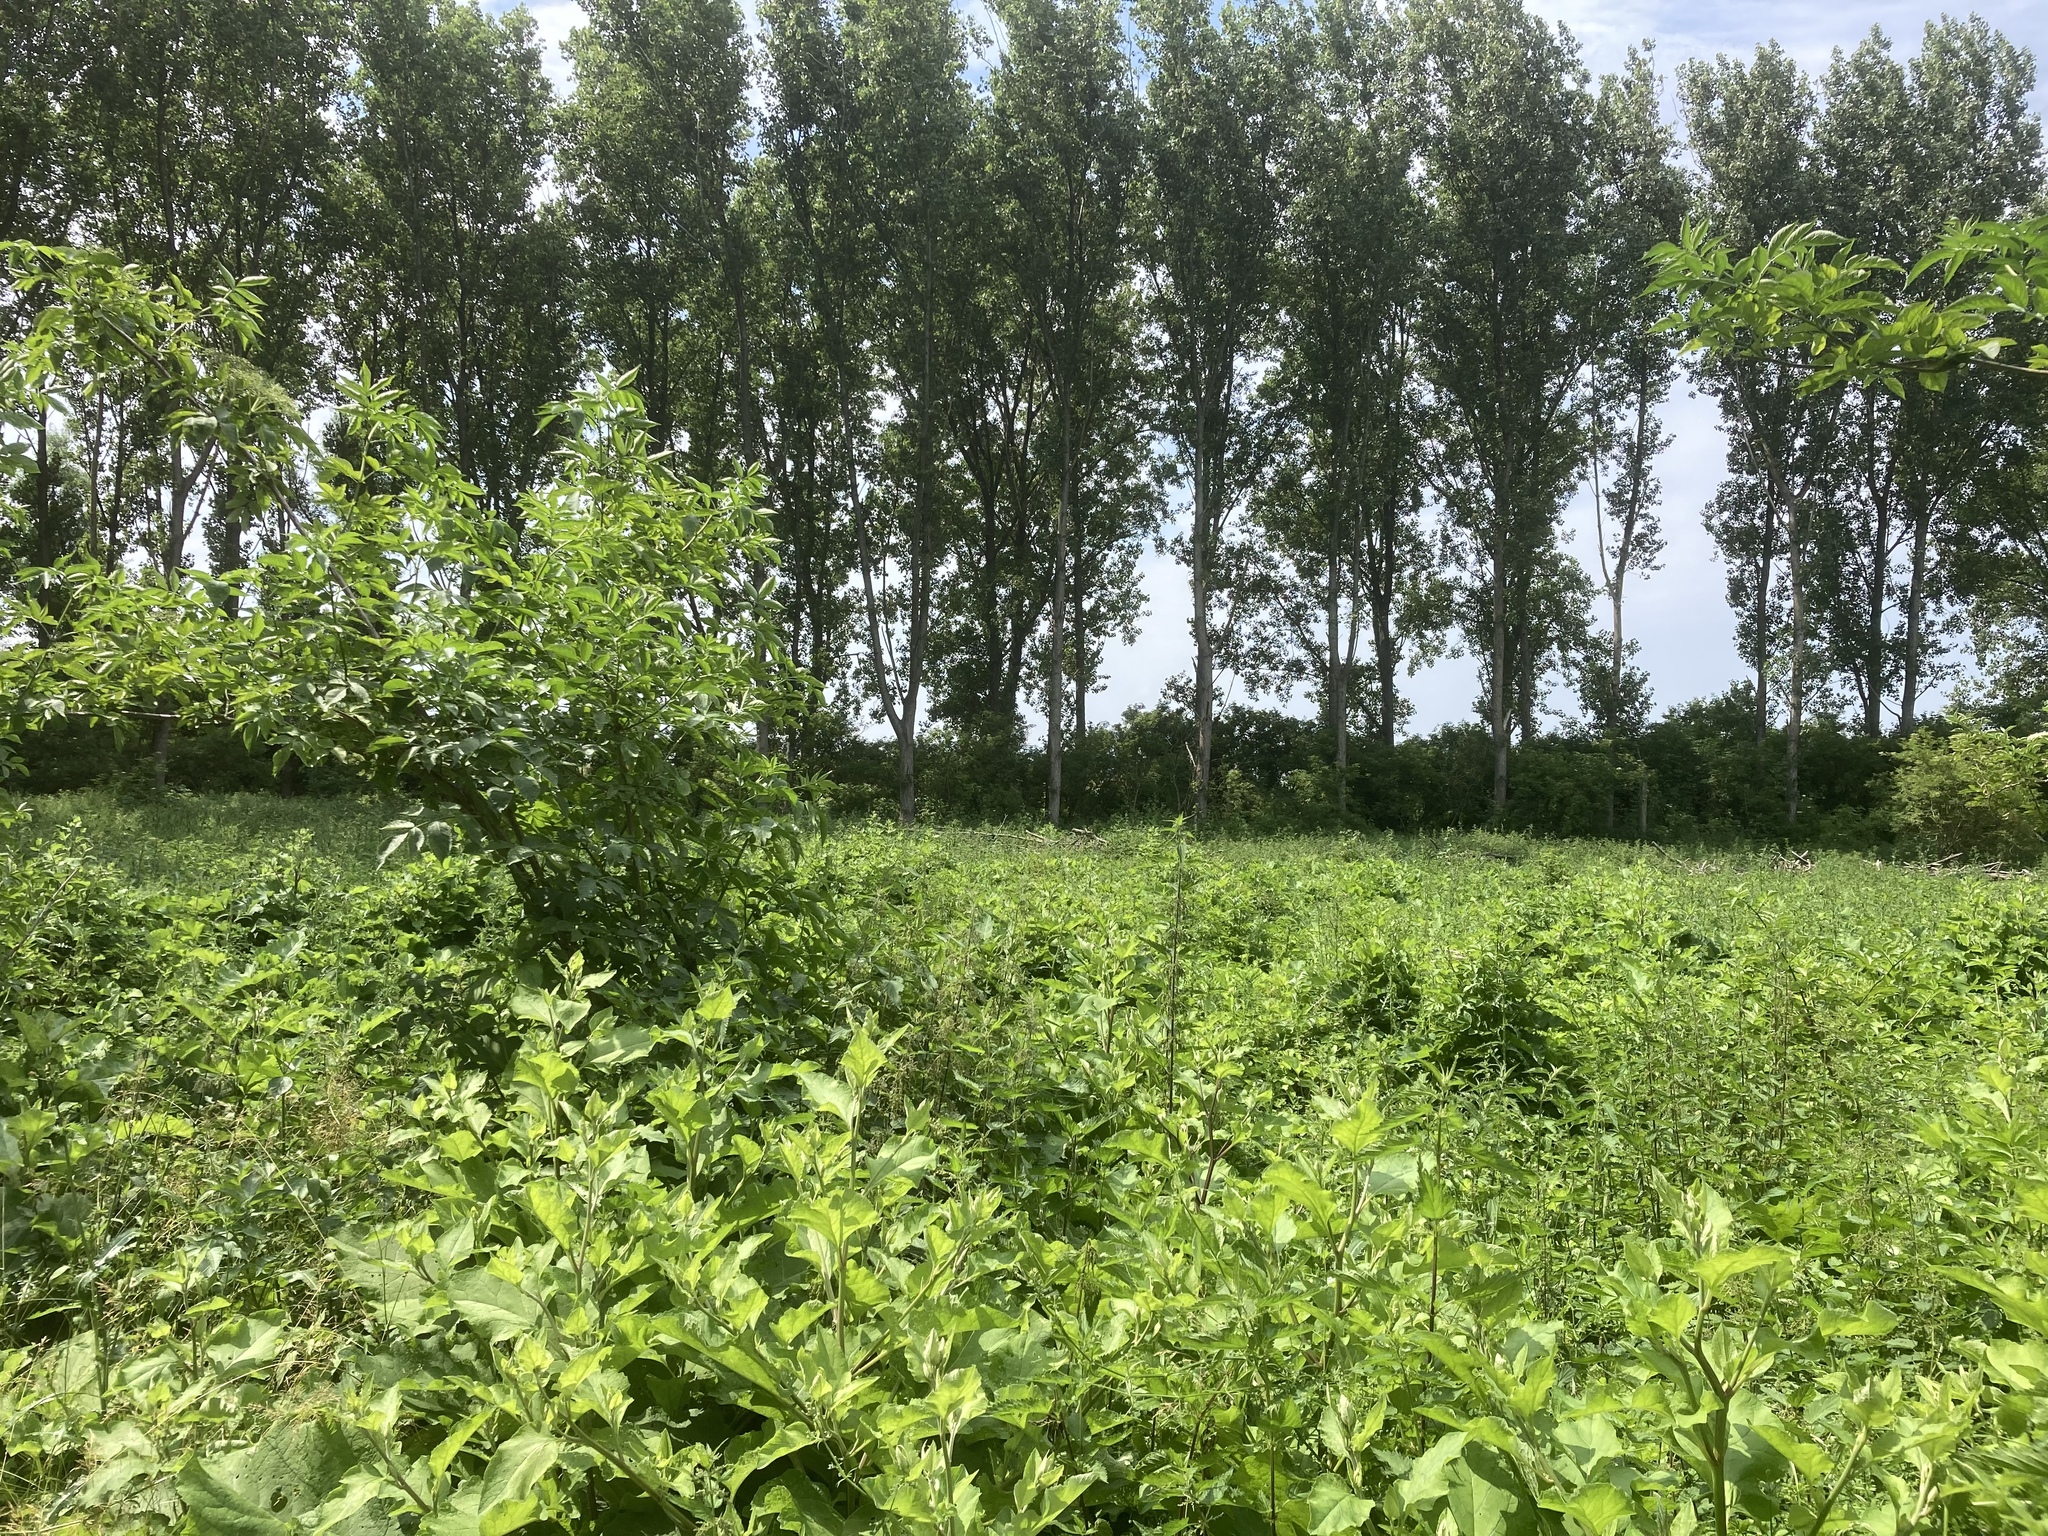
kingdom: Plantae
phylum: Tracheophyta
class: Magnoliopsida
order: Dipsacales
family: Viburnaceae
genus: Sambucus
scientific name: Sambucus nigra
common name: Elder
